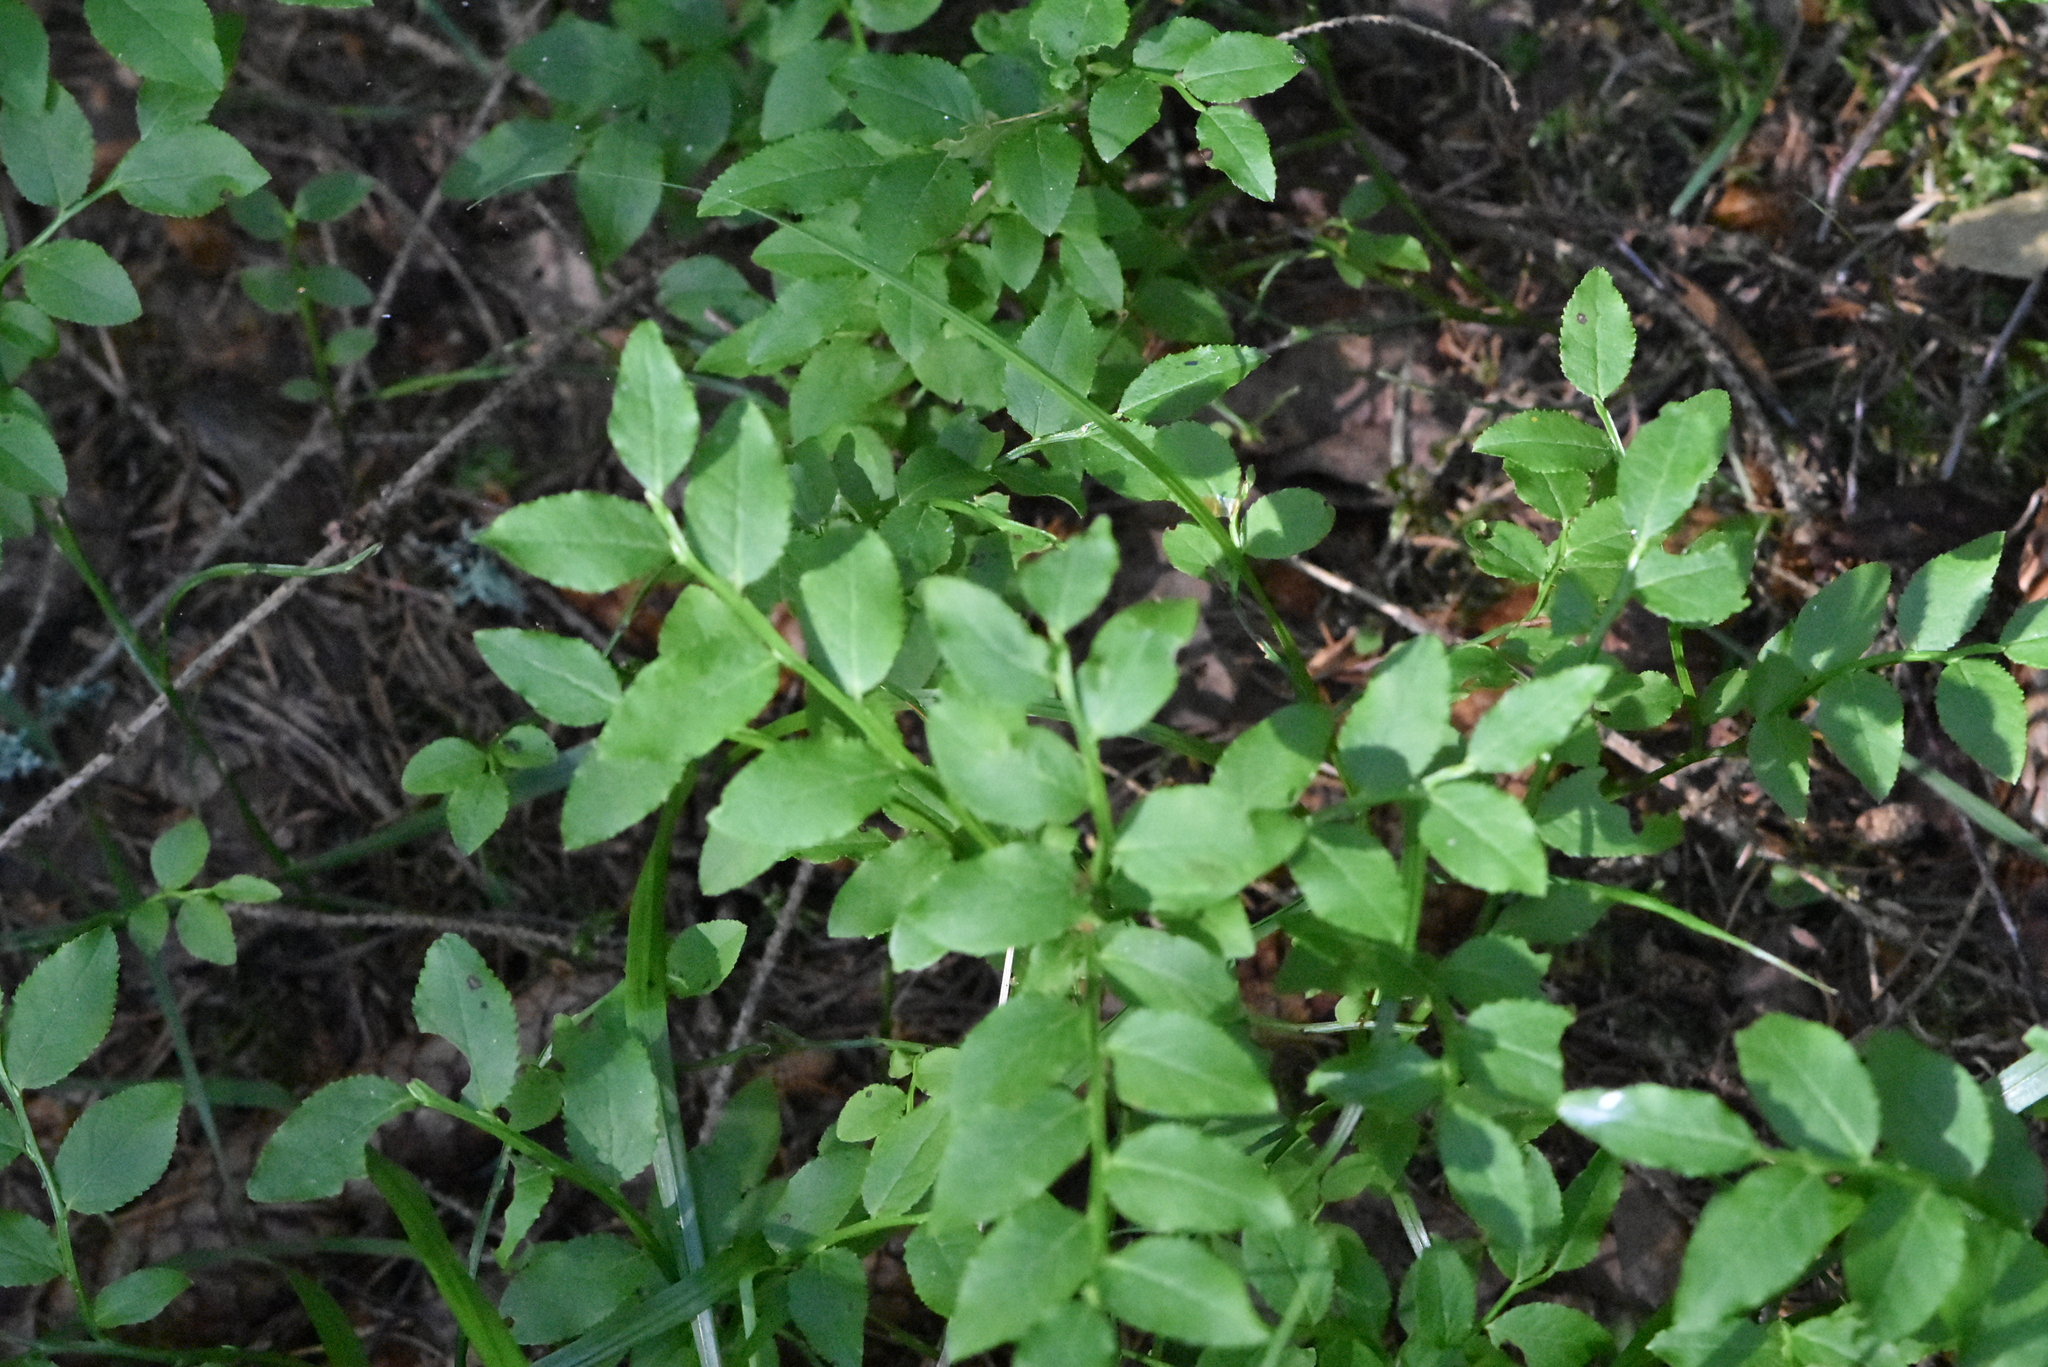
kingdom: Plantae
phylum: Tracheophyta
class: Magnoliopsida
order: Ericales
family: Ericaceae
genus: Vaccinium
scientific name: Vaccinium myrtillus
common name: Bilberry
